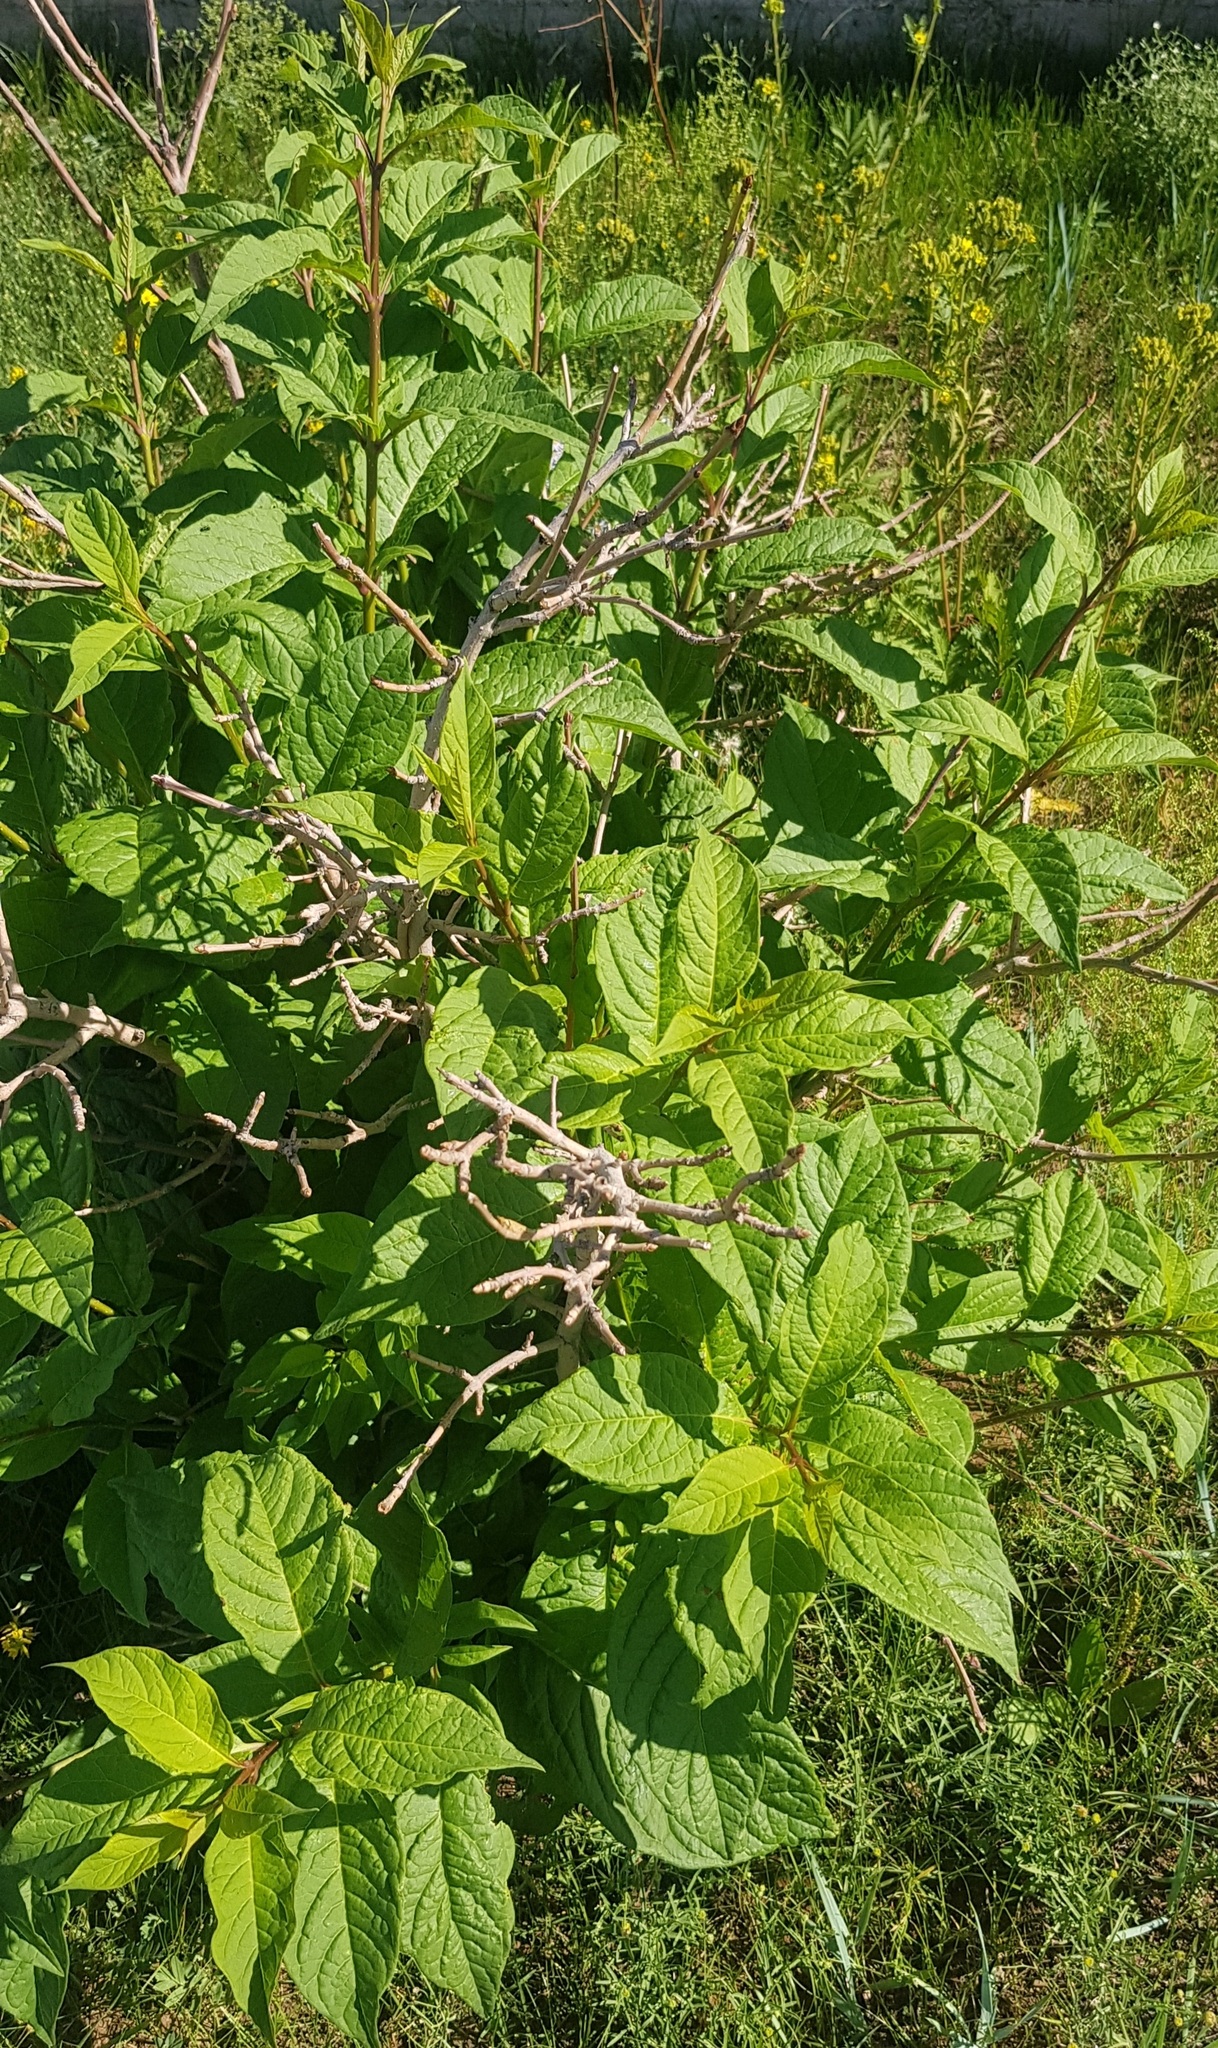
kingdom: Plantae
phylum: Tracheophyta
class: Magnoliopsida
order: Rosales
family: Rosaceae
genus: Prunus
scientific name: Prunus padus
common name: Bird cherry
